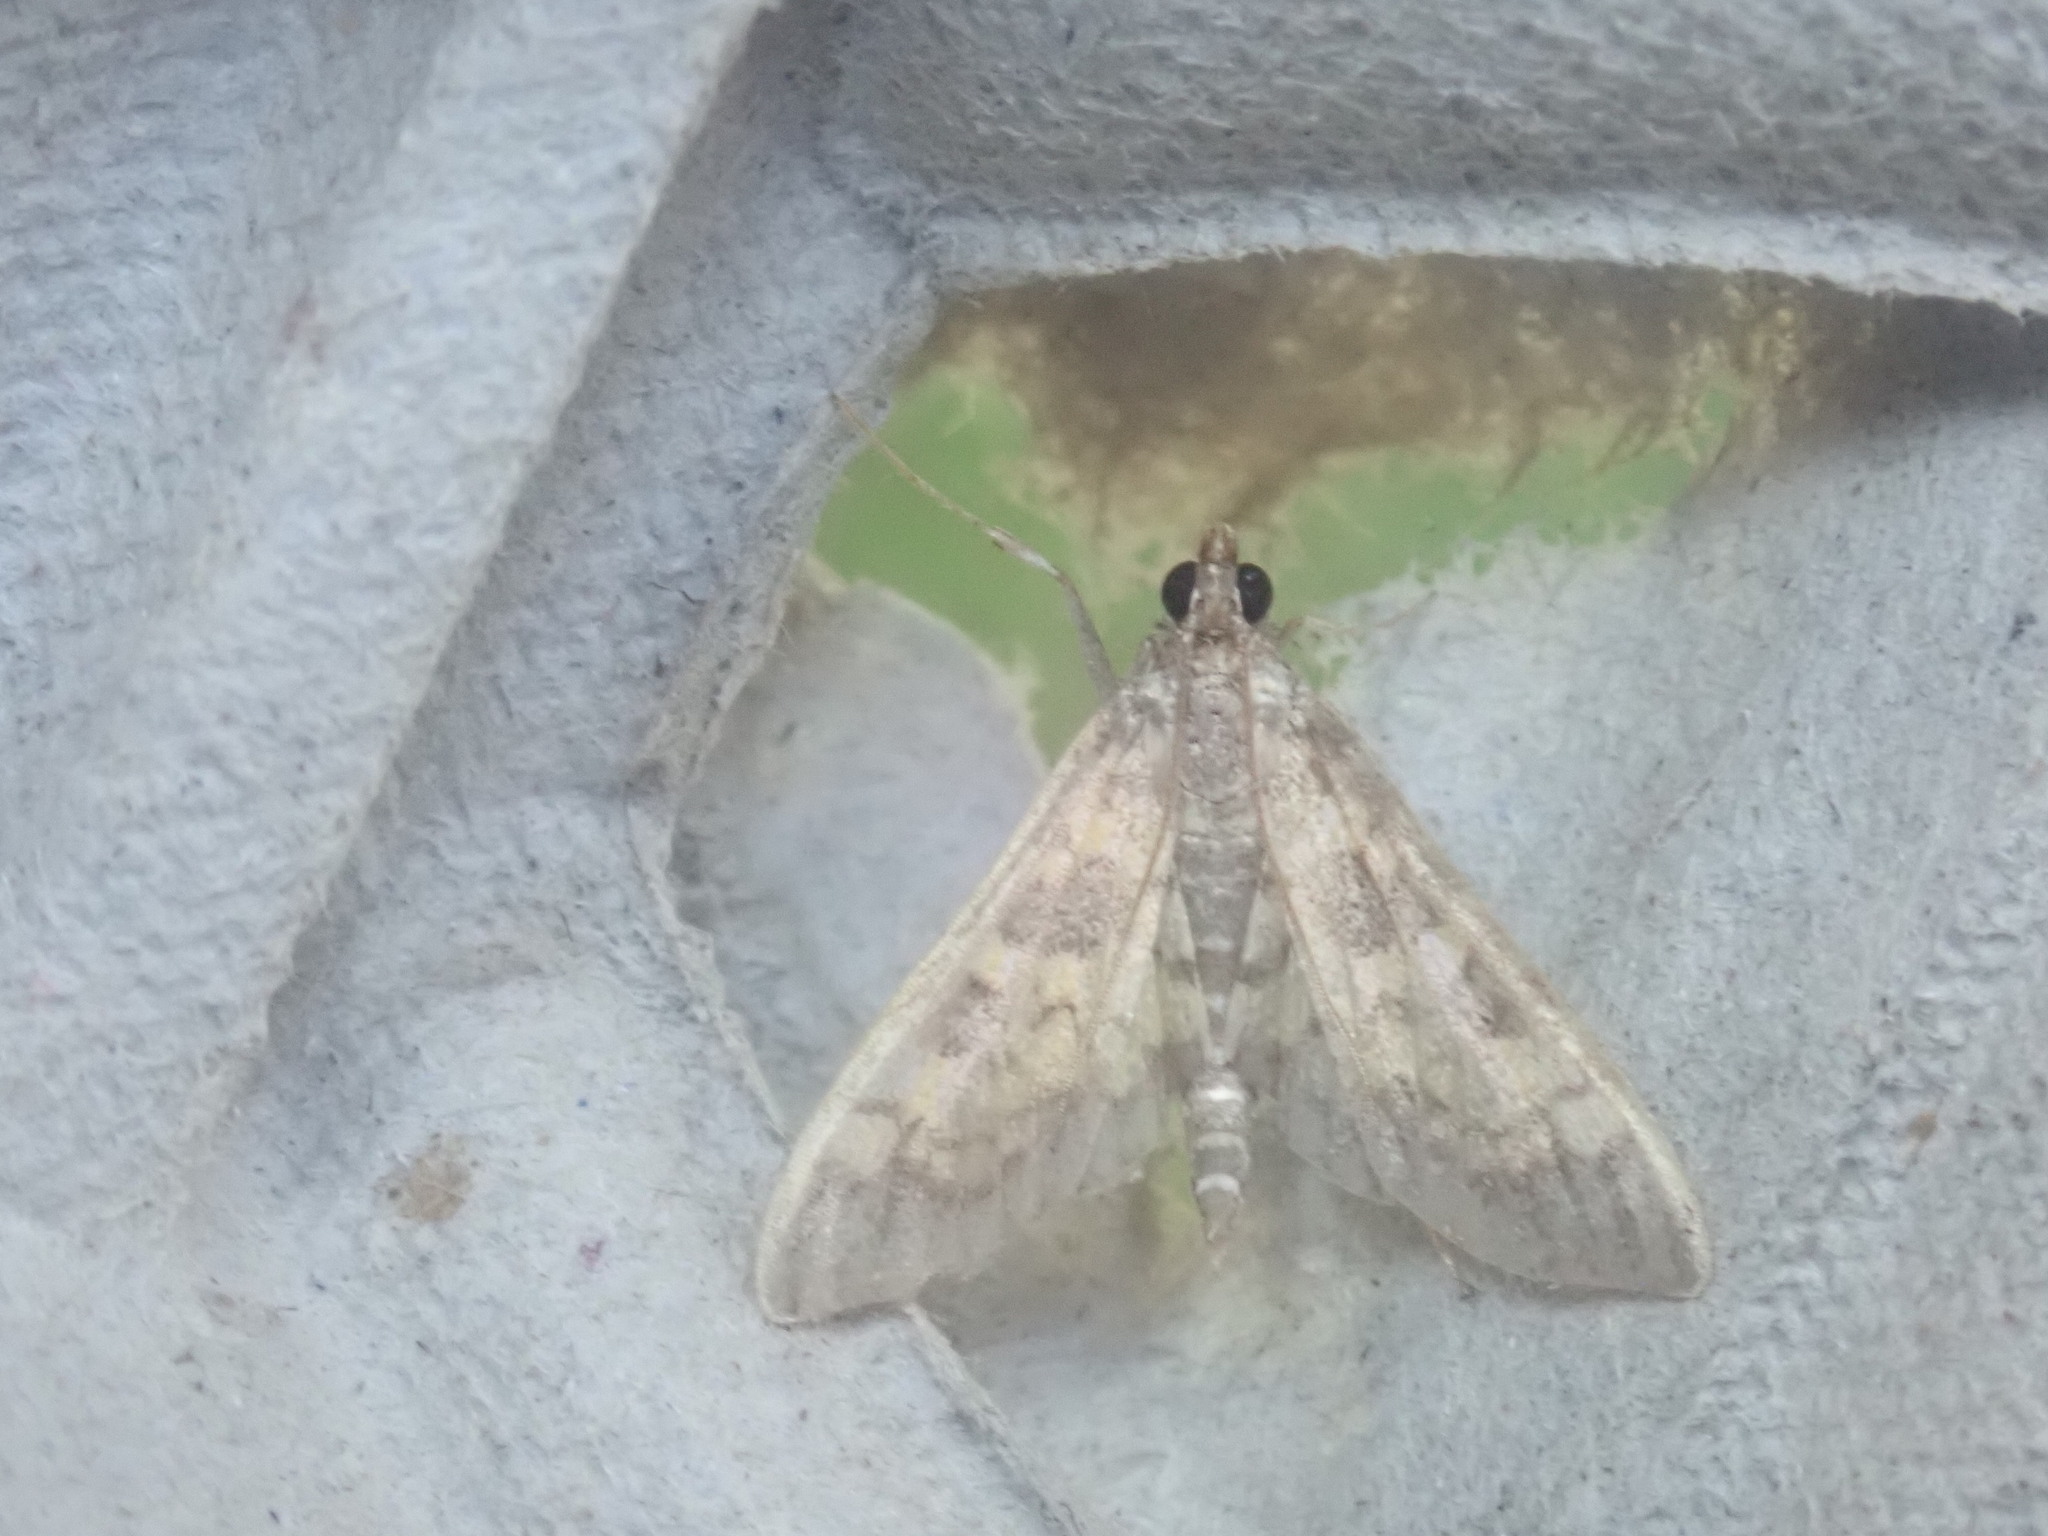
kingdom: Animalia
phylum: Arthropoda
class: Insecta
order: Lepidoptera
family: Crambidae
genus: Epipagis
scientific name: Epipagis adipaloides
